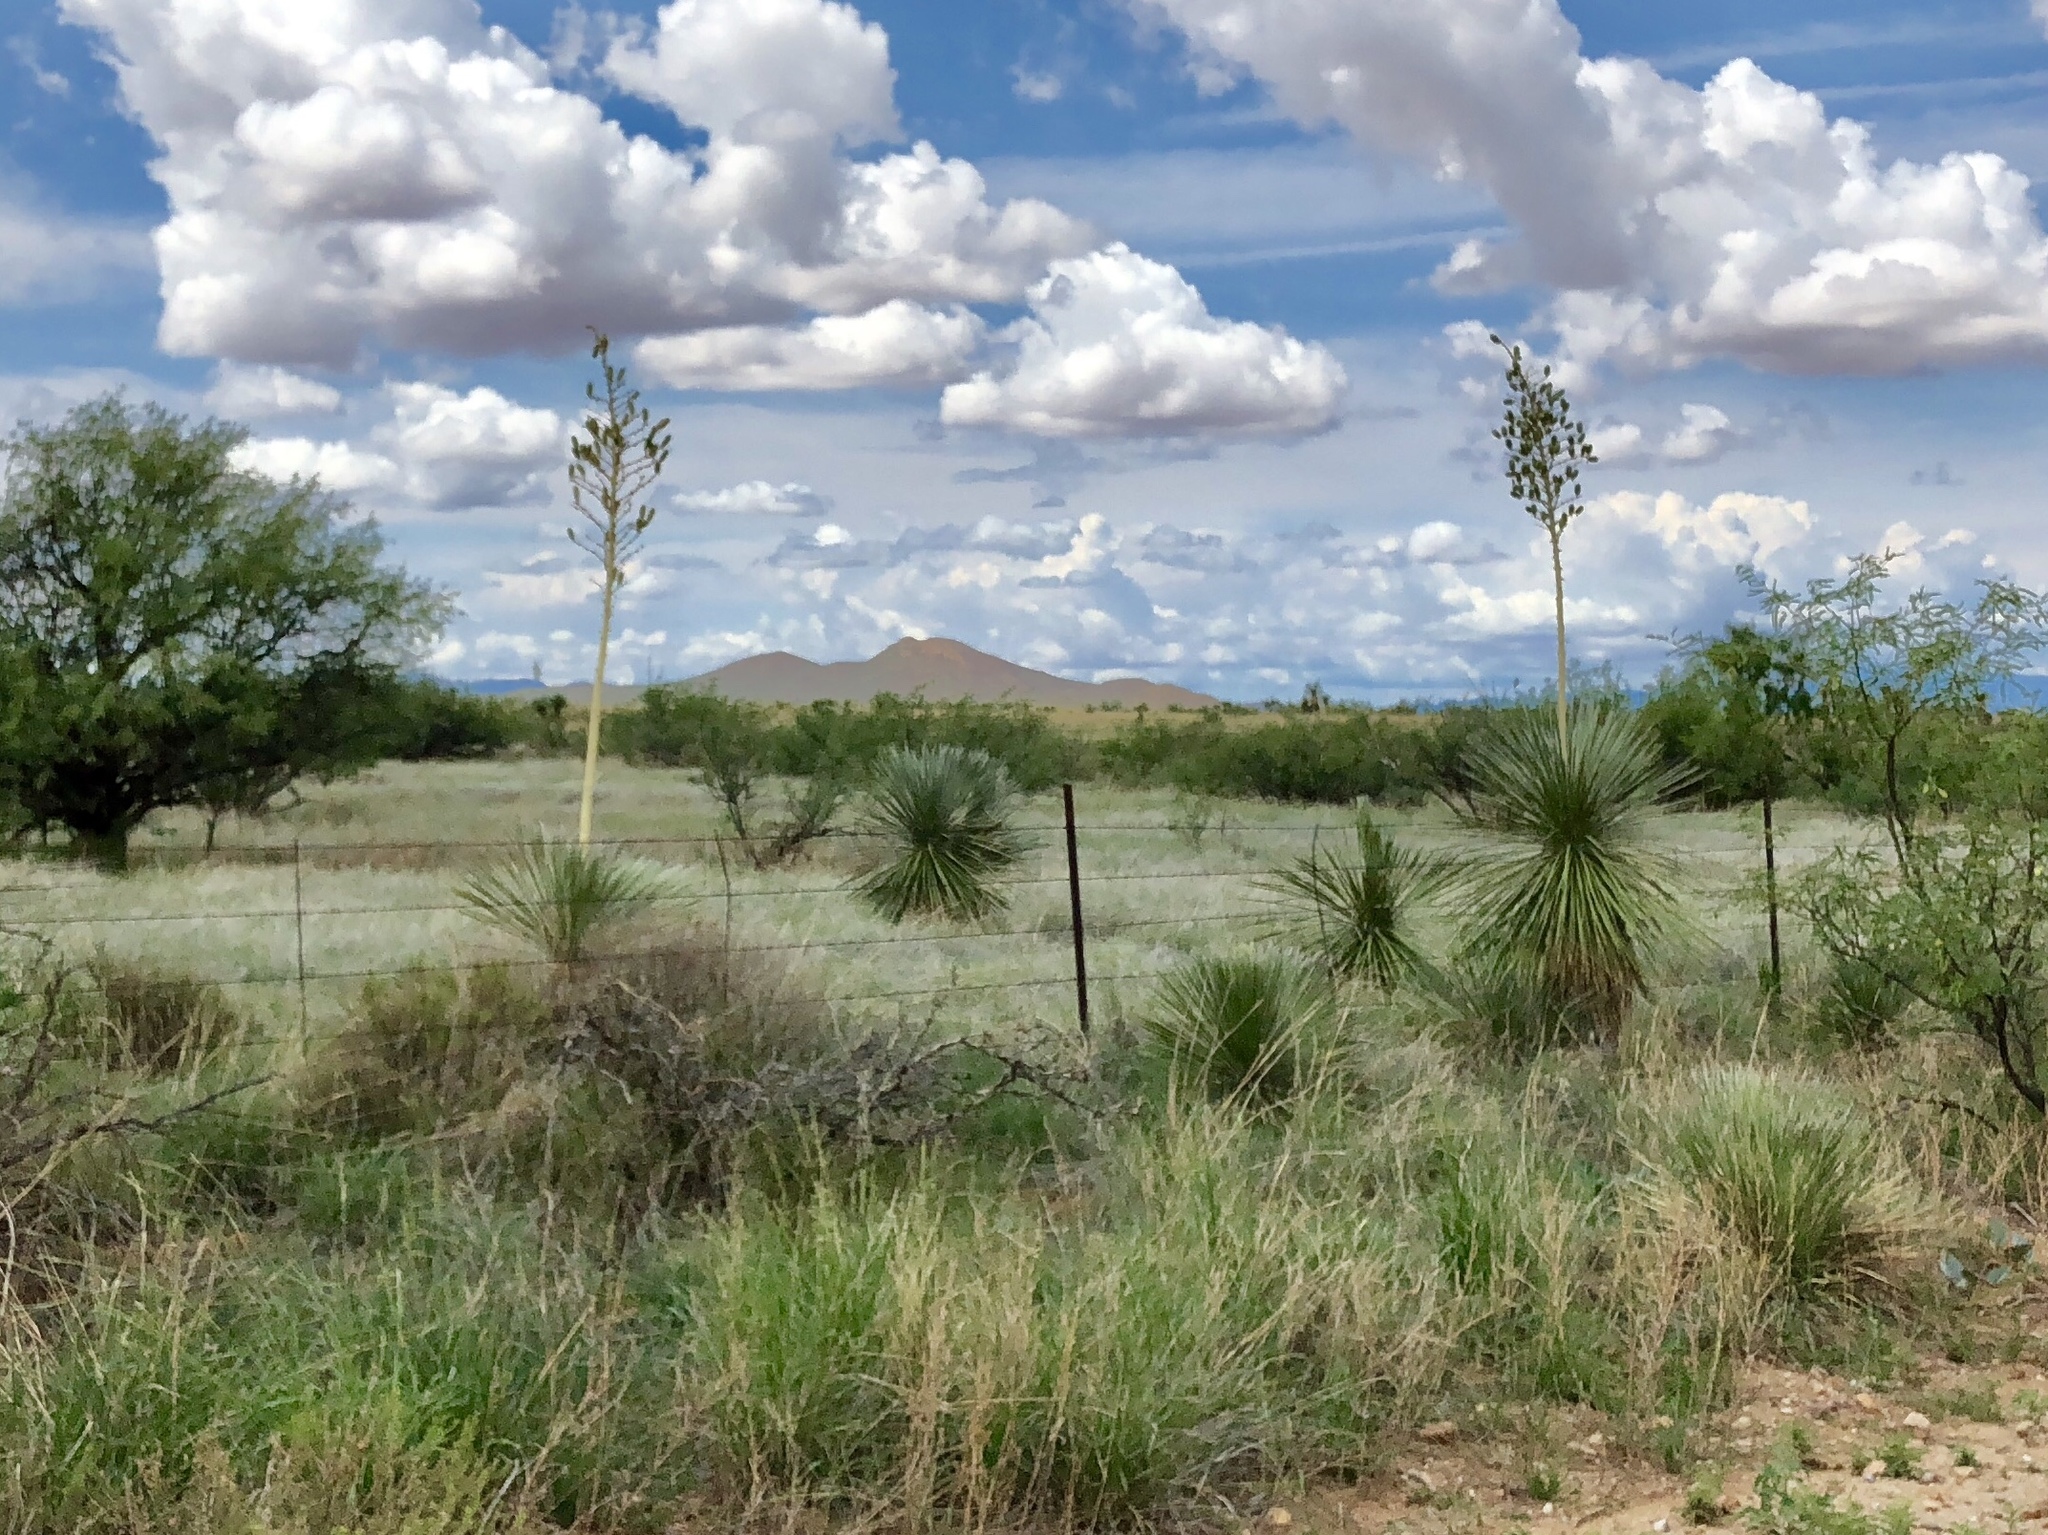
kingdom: Plantae
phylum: Tracheophyta
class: Liliopsida
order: Asparagales
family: Asparagaceae
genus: Yucca
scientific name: Yucca elata
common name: Palmella
